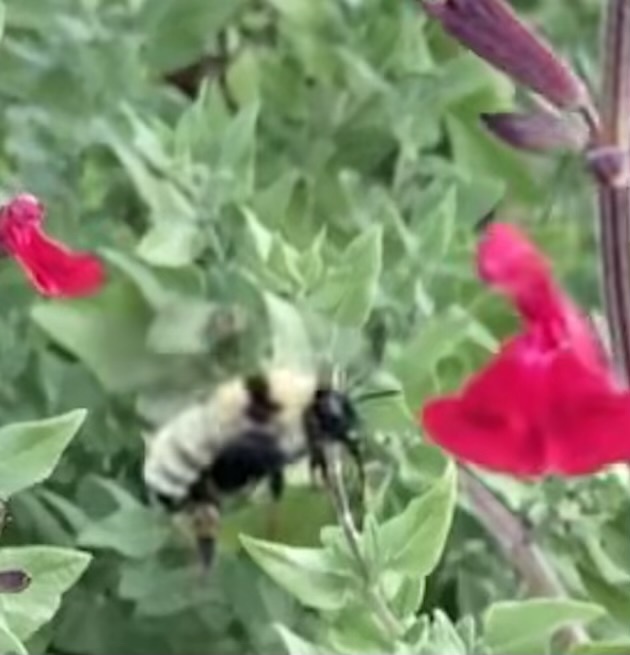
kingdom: Animalia
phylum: Arthropoda
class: Insecta
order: Hymenoptera
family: Apidae
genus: Bombus
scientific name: Bombus fervidus
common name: Yellow bumble bee
